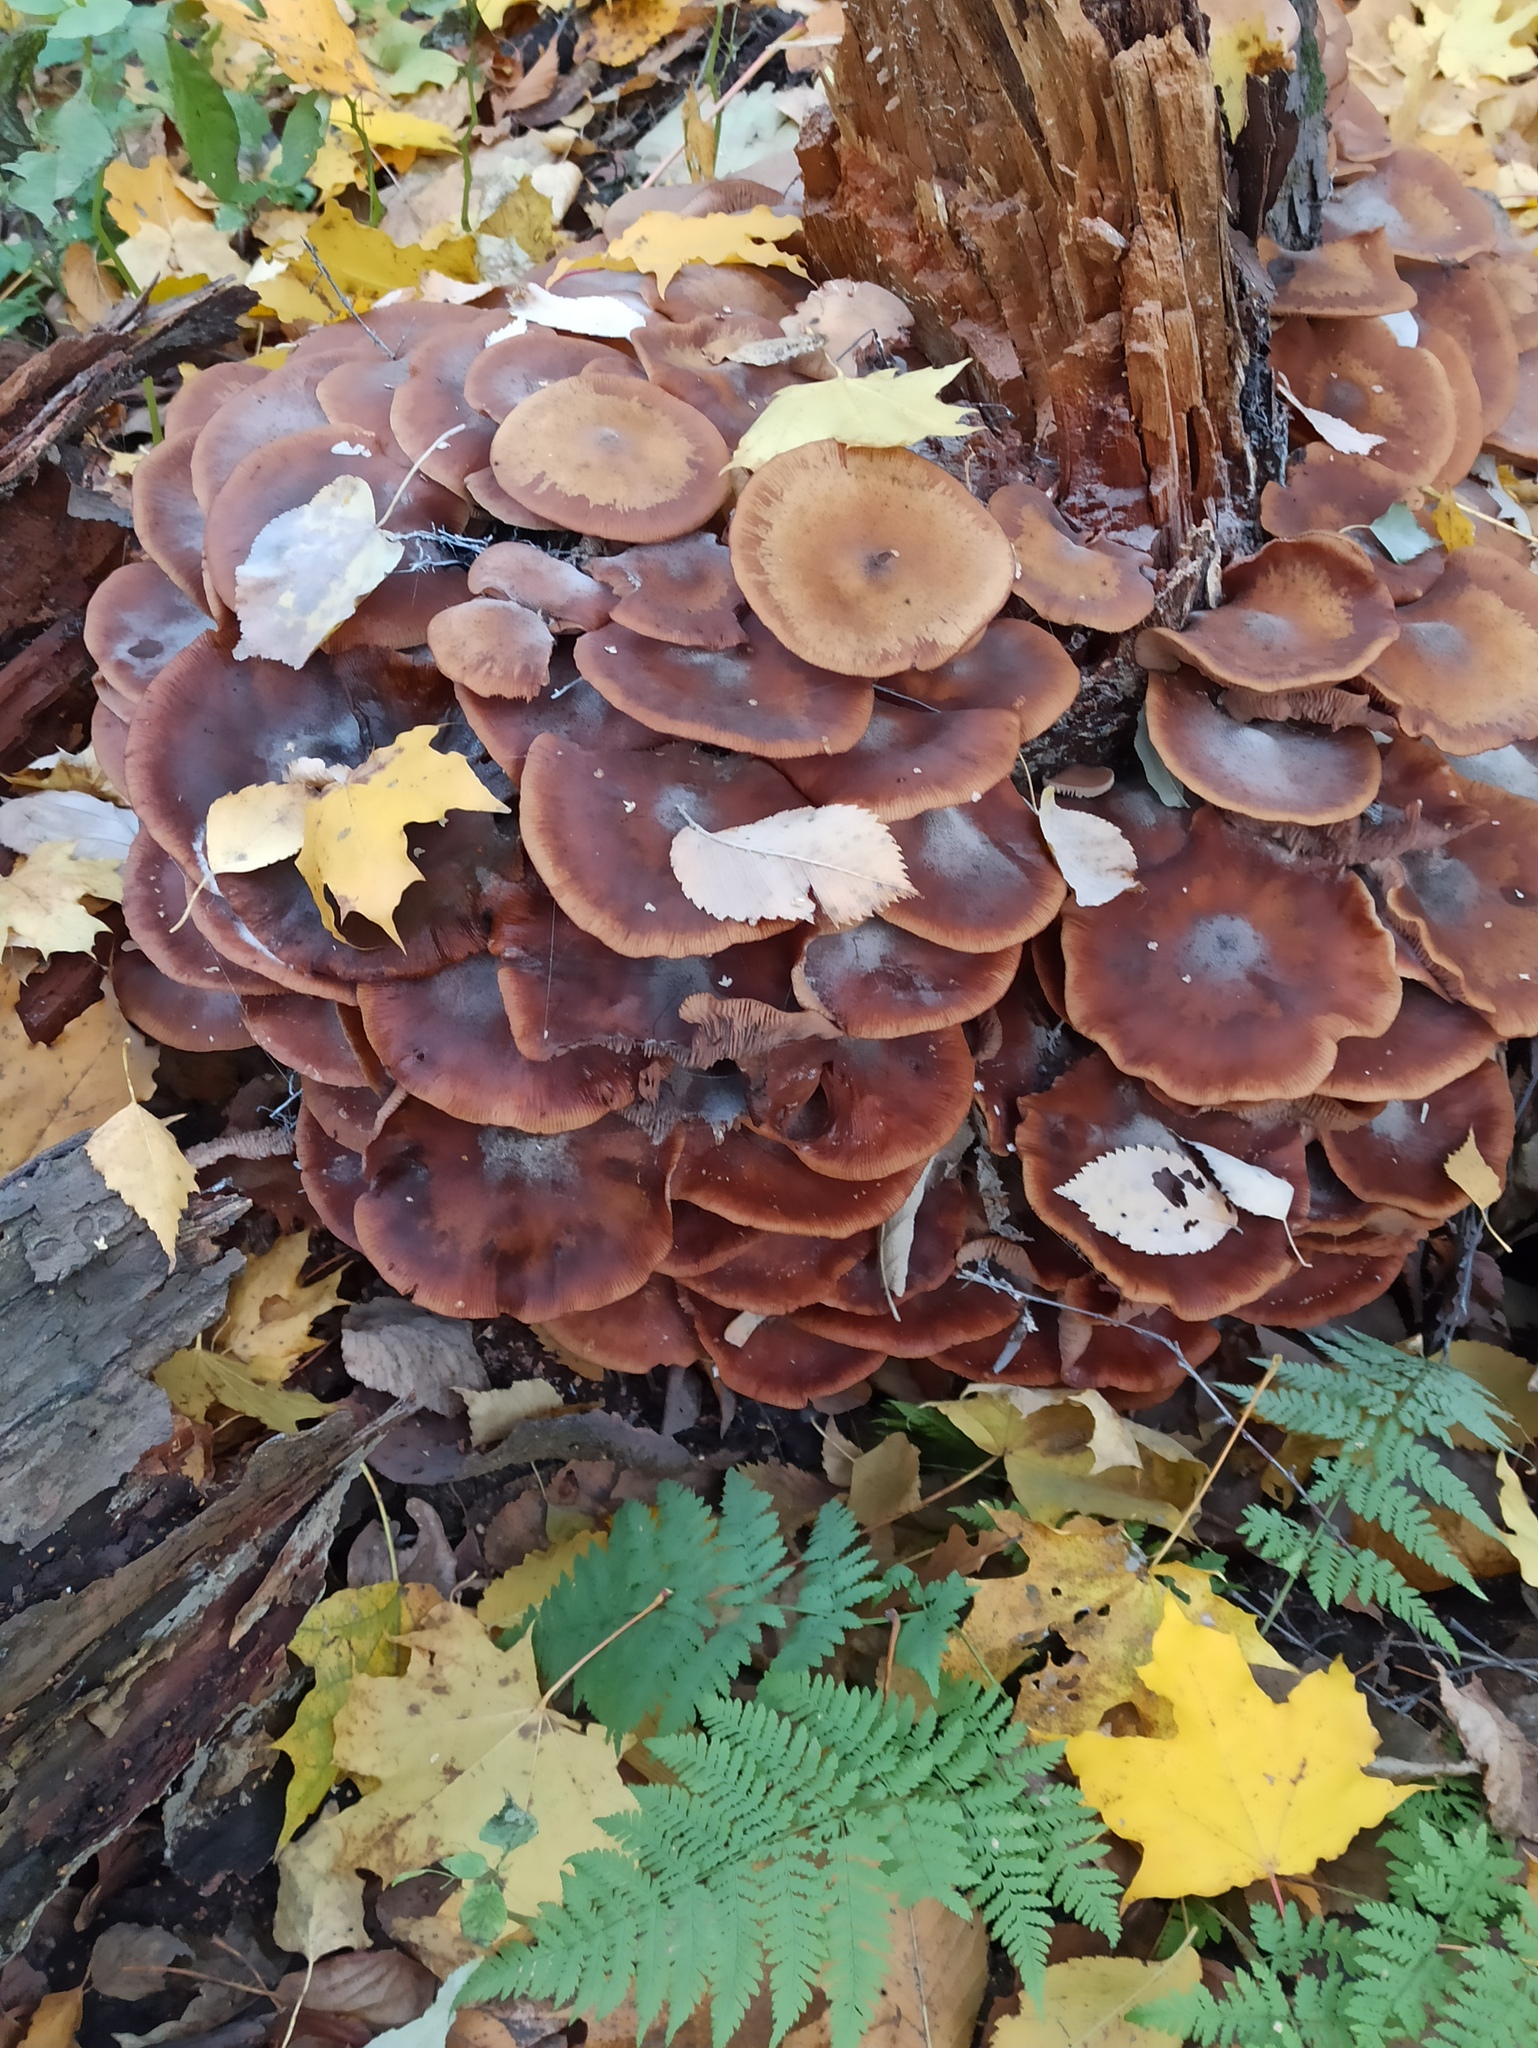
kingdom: Fungi
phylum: Basidiomycota
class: Agaricomycetes
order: Agaricales
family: Physalacriaceae
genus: Armillaria
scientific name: Armillaria ostoyae
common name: Dark honey fungus
